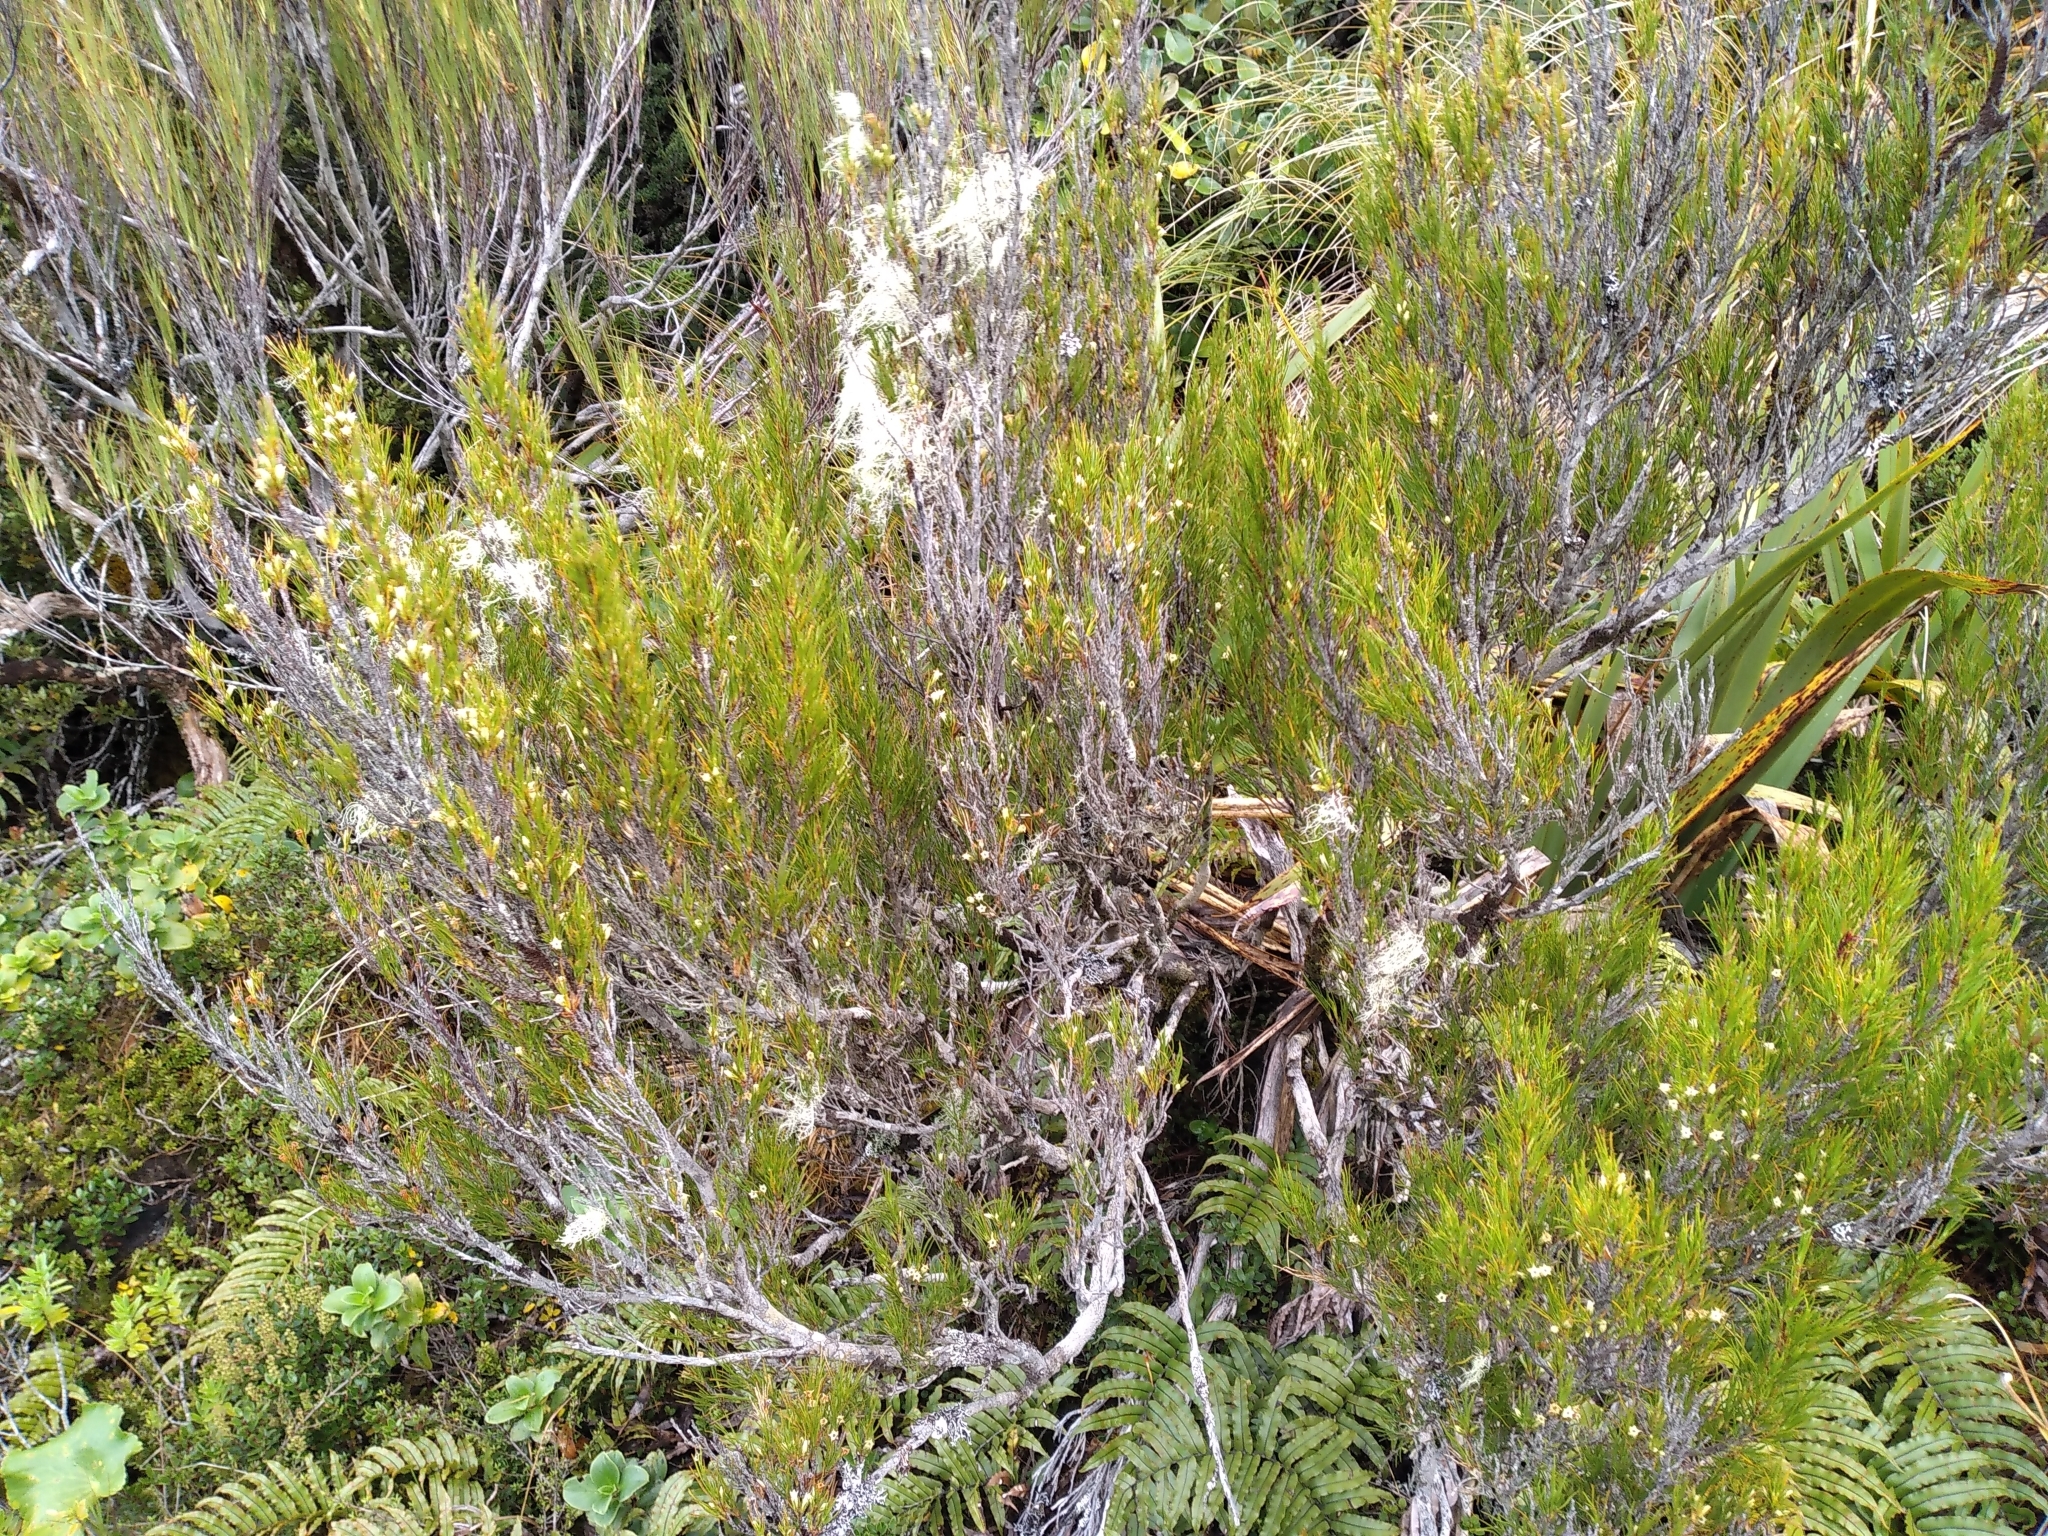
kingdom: Plantae
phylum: Tracheophyta
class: Magnoliopsida
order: Ericales
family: Ericaceae
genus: Dracophyllum
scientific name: Dracophyllum rosmarinifolium
